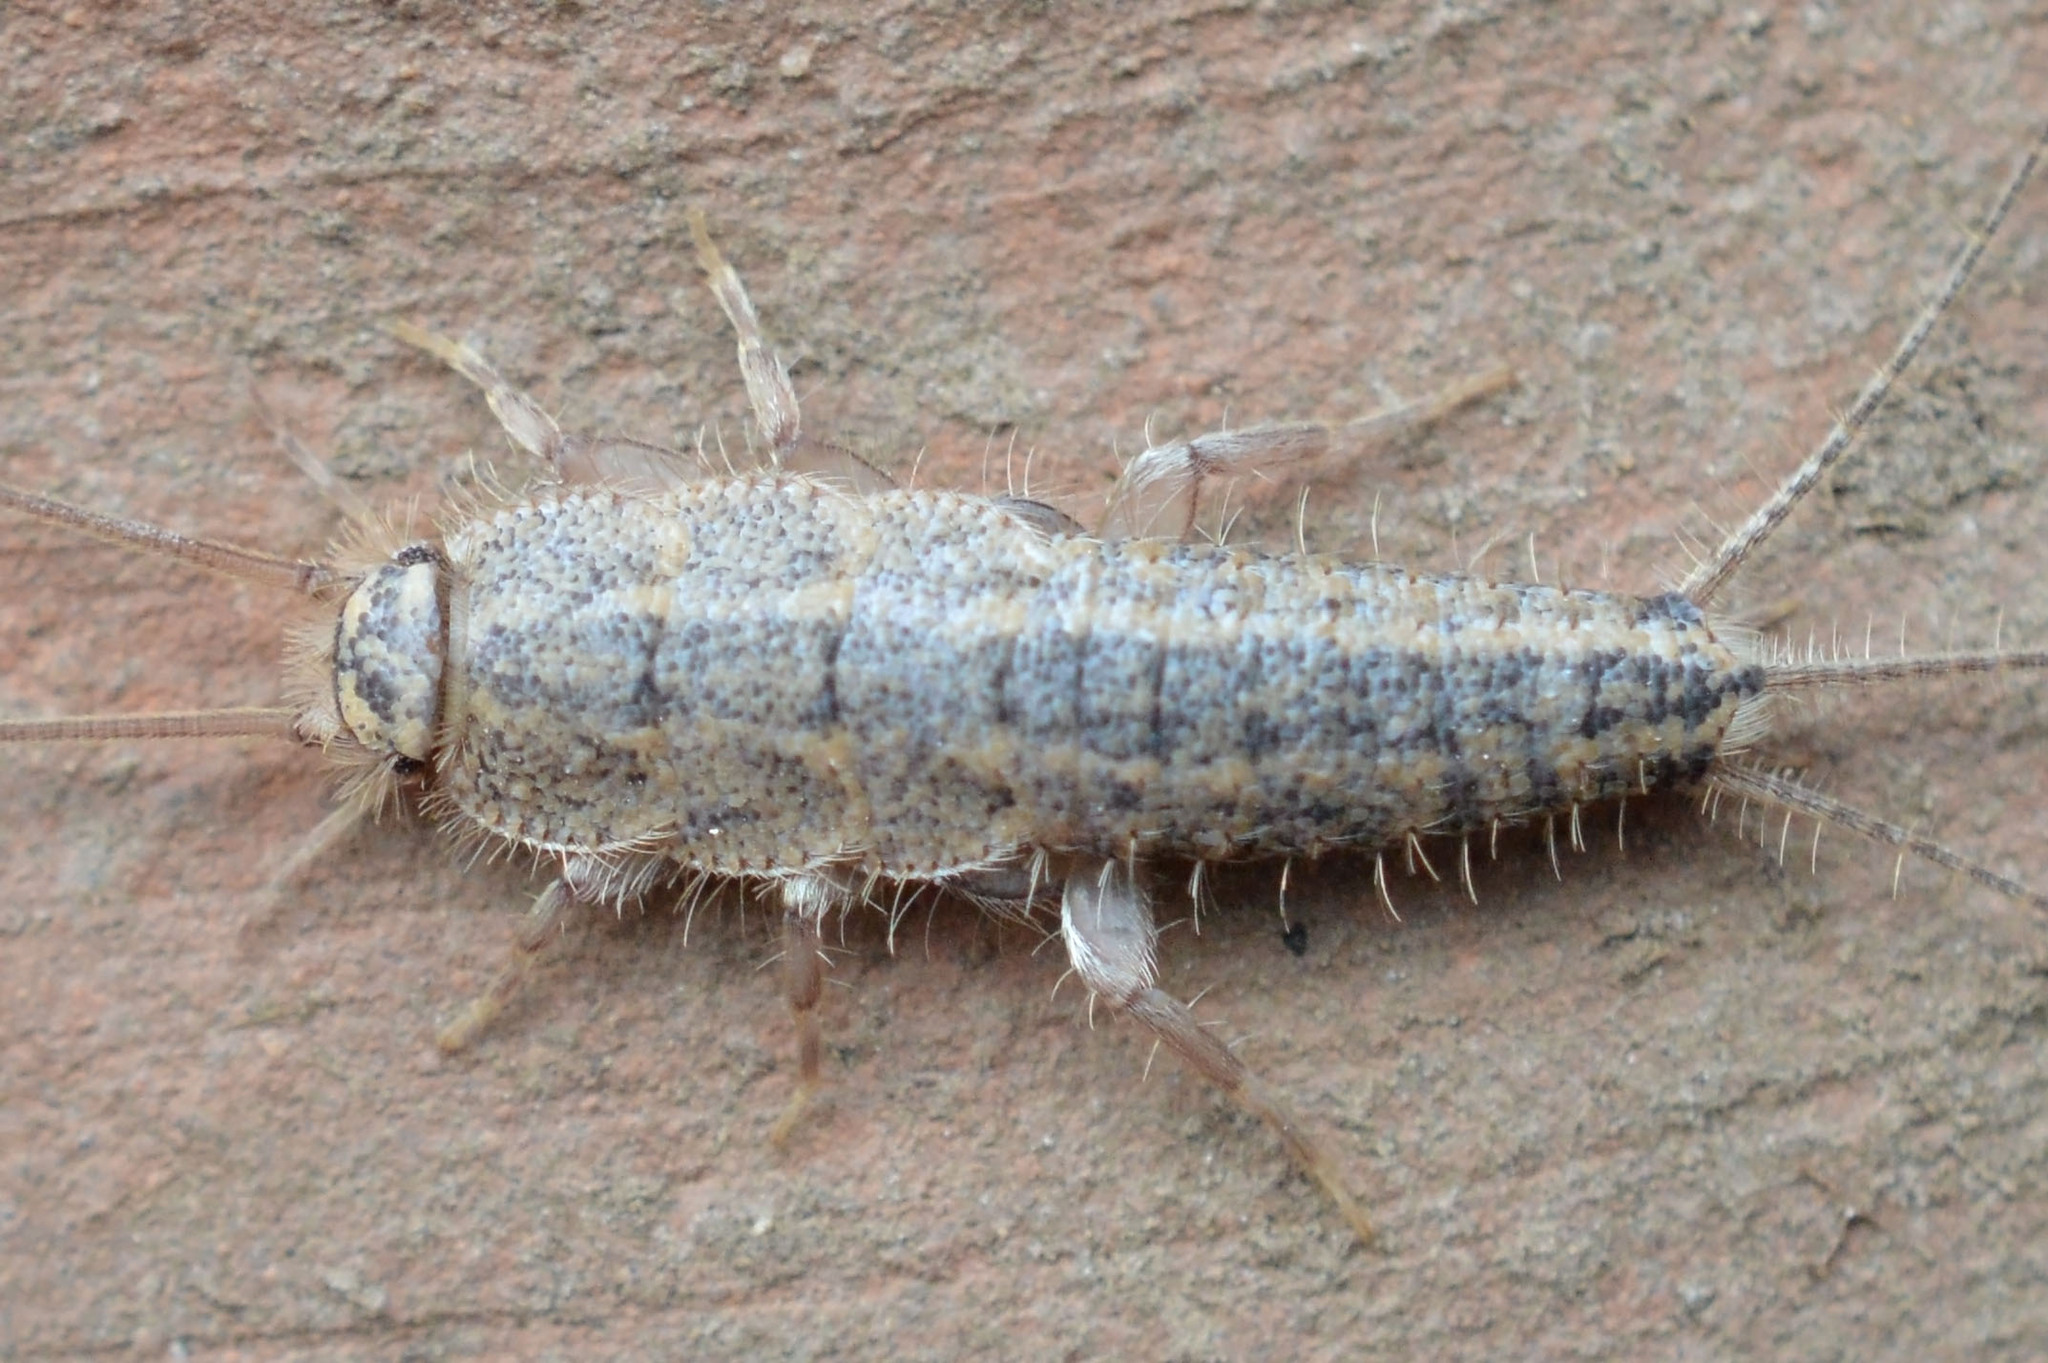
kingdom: Animalia
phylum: Arthropoda
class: Insecta
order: Zygentoma
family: Lepismatidae
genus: Ctenolepisma
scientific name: Ctenolepisma lineata
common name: Four-lined silverfish
